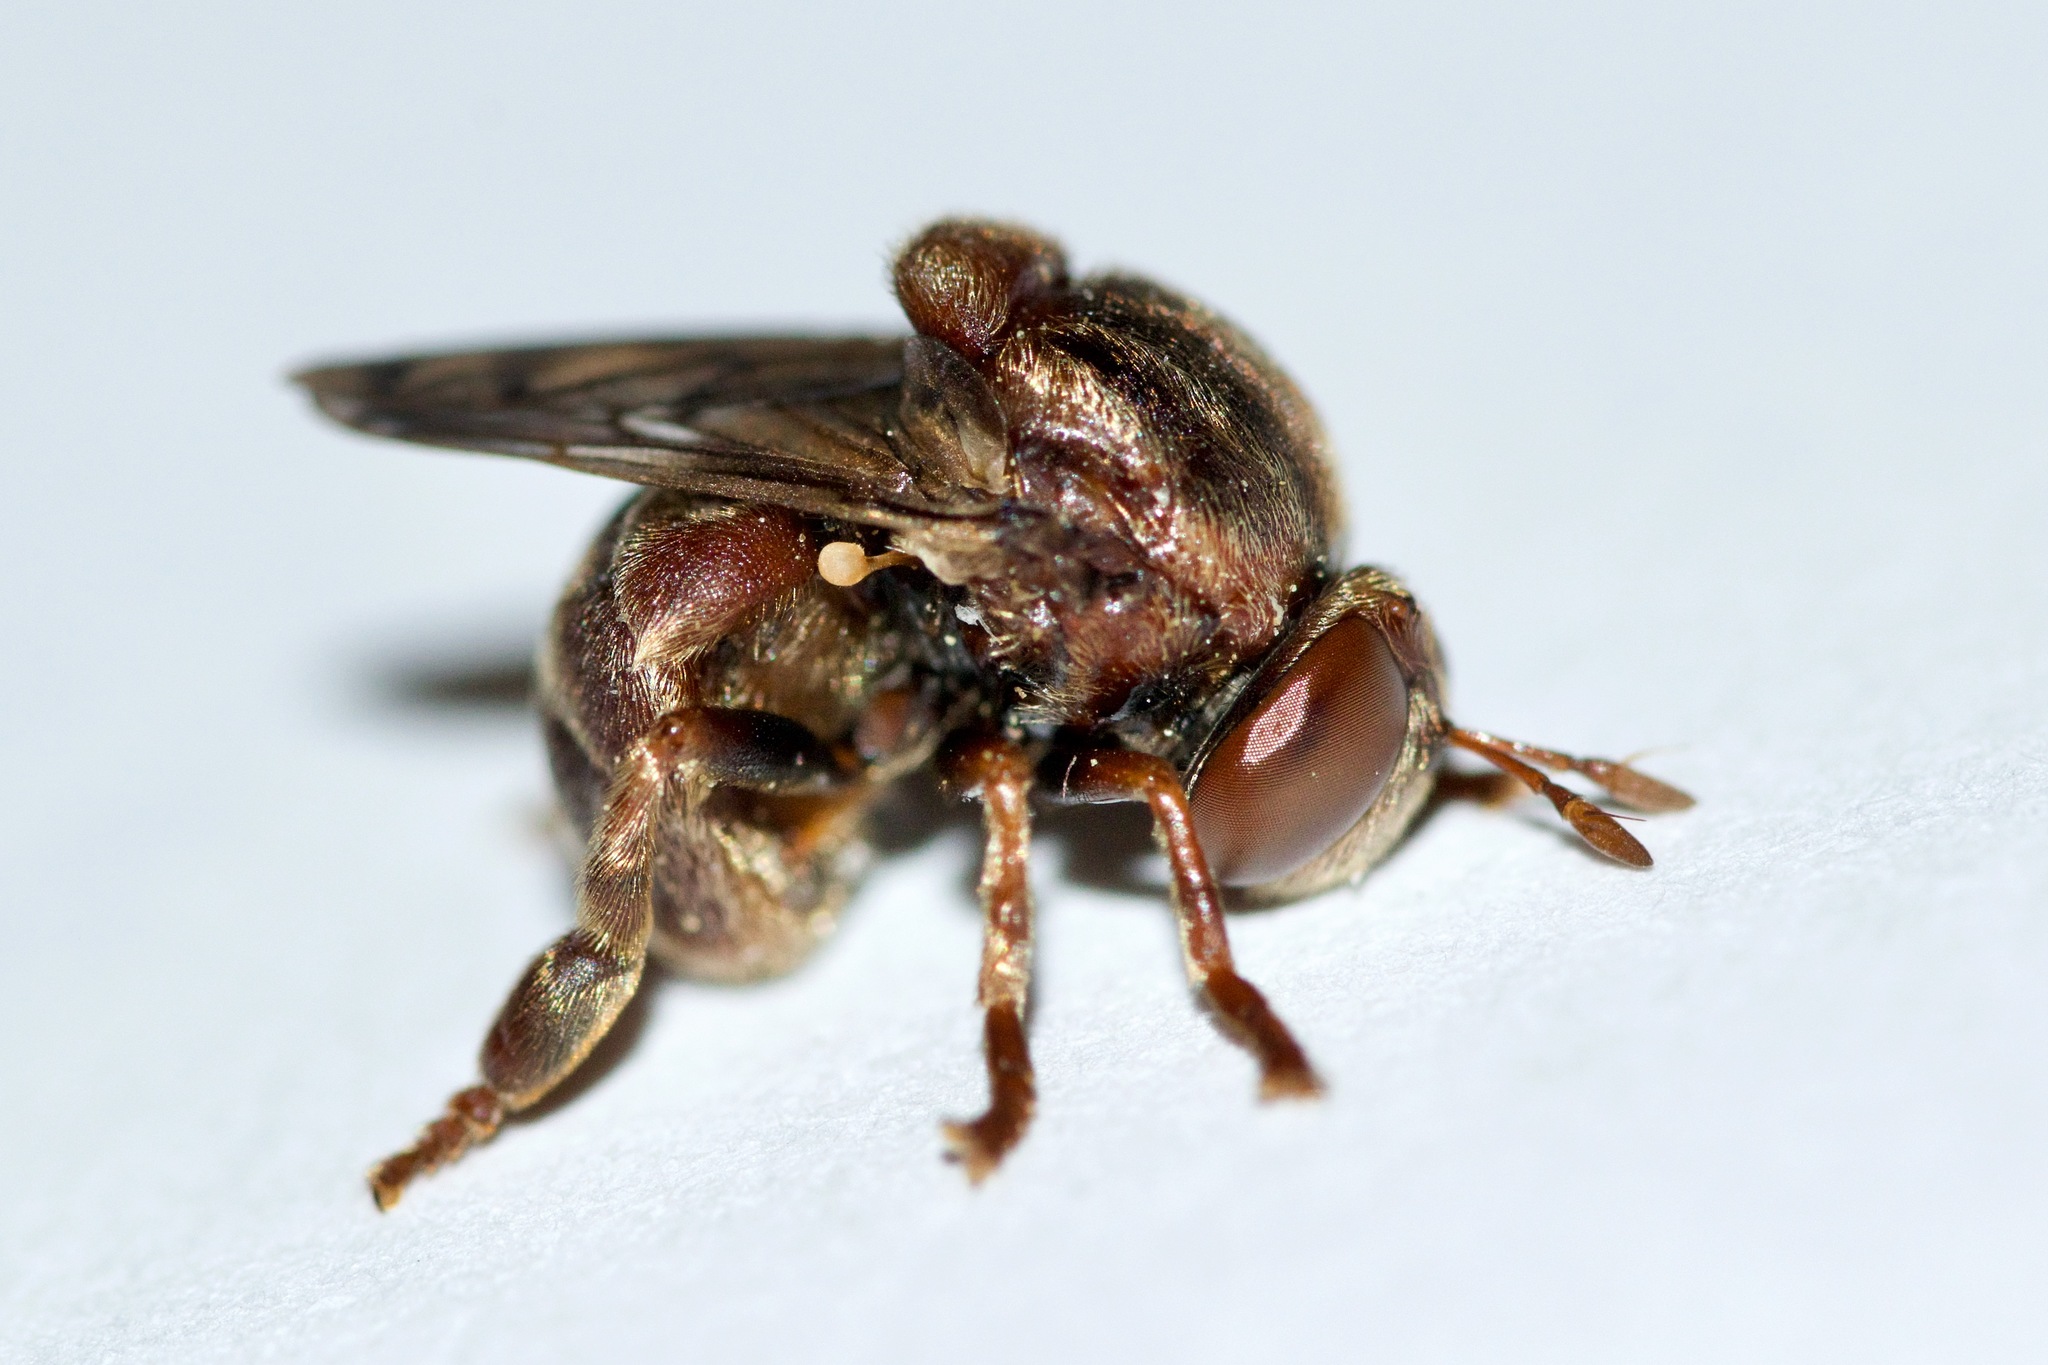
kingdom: Animalia
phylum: Arthropoda
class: Insecta
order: Diptera
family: Syrphidae
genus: Microdon
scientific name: Microdon globosus
